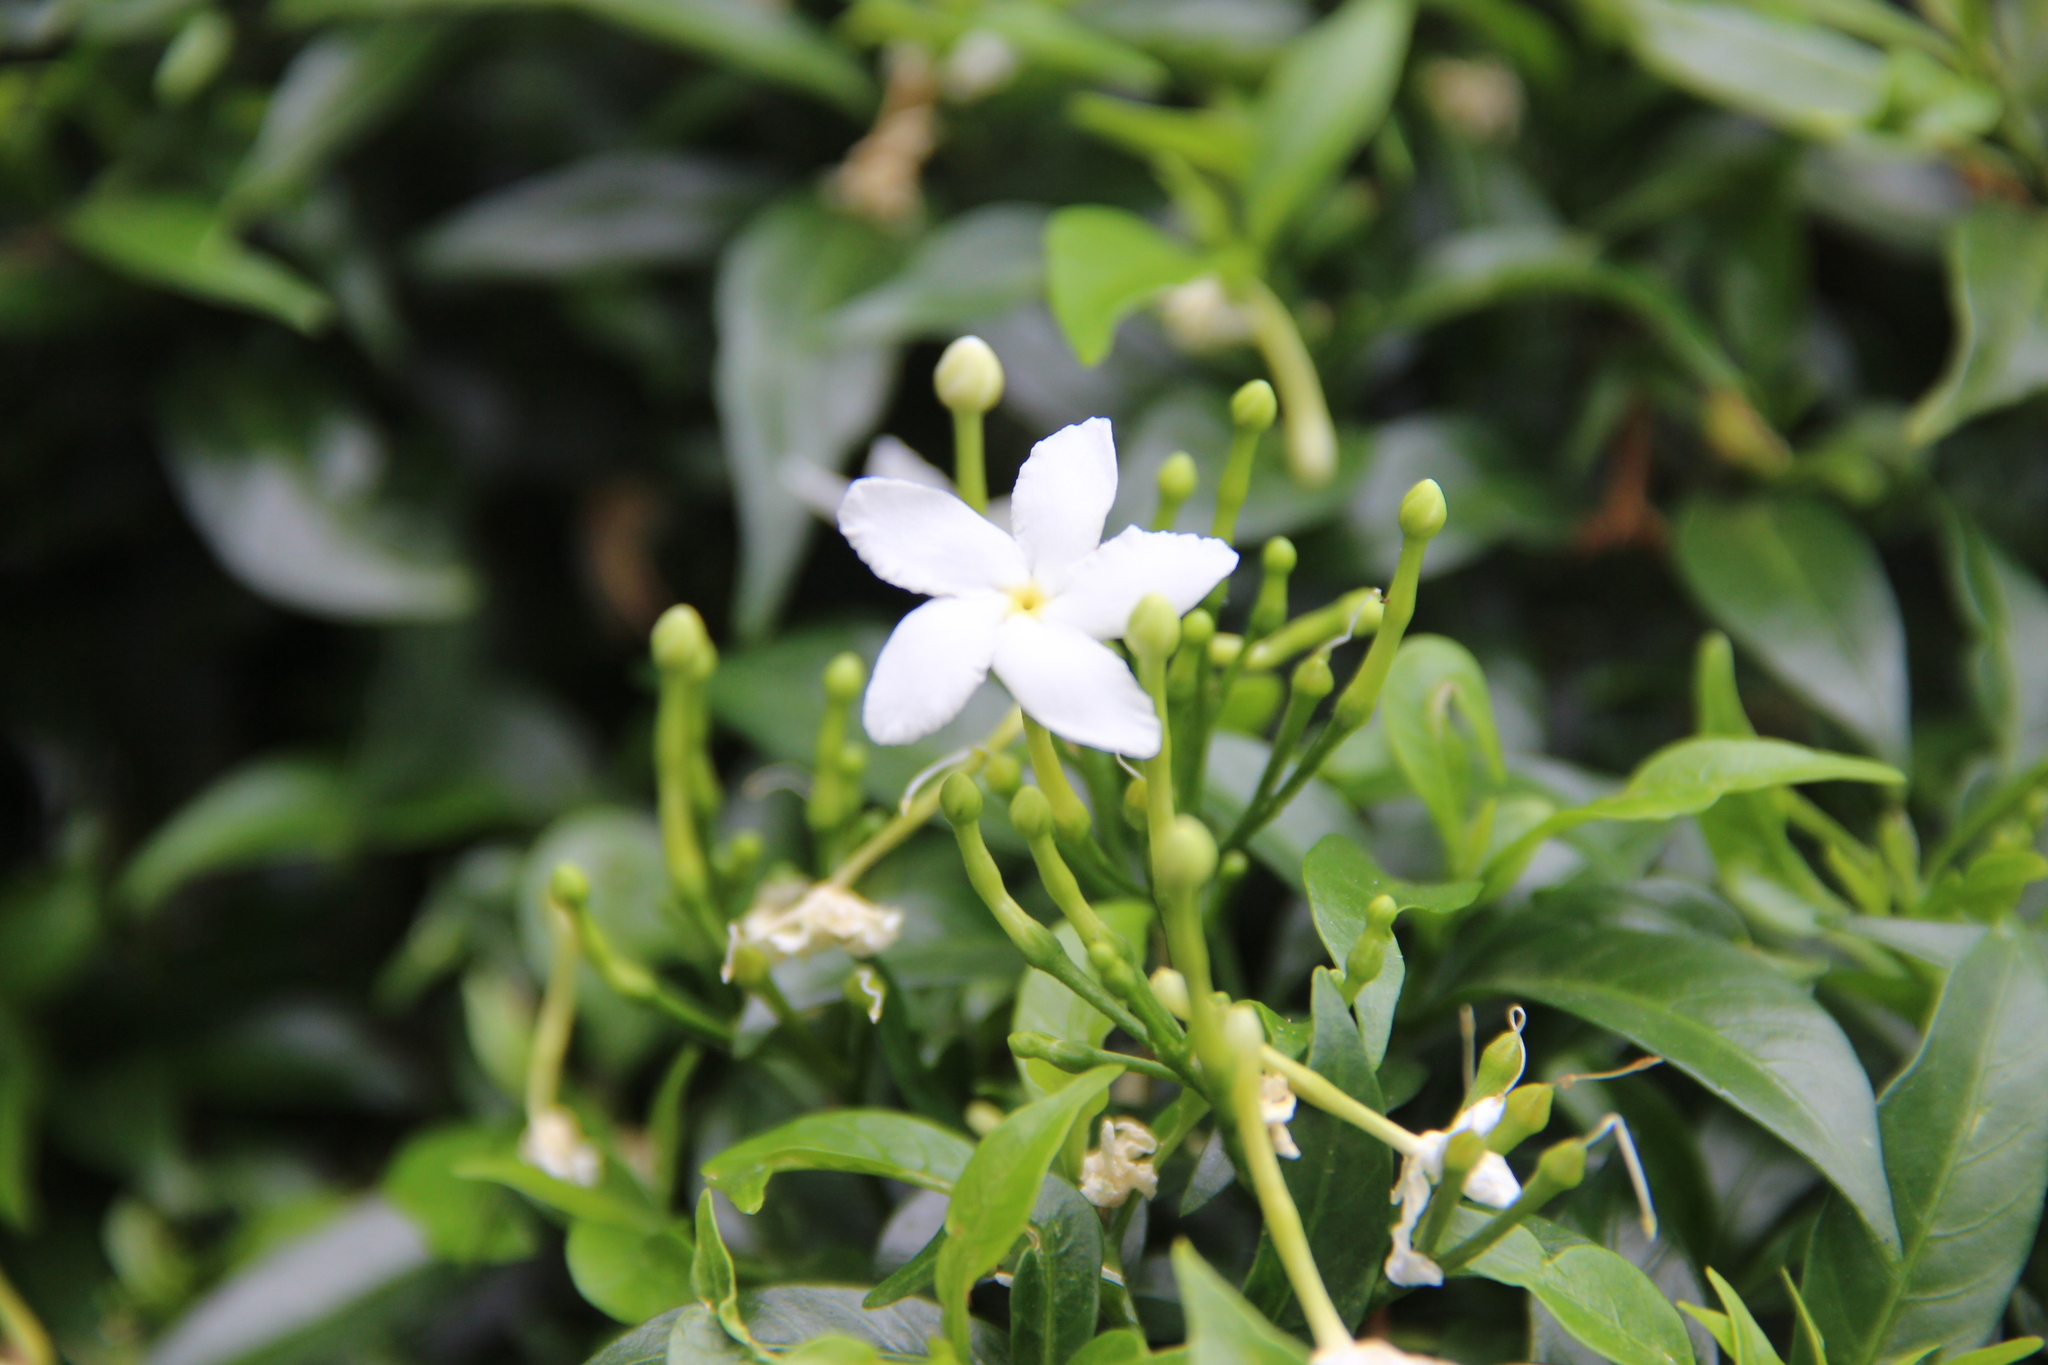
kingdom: Plantae
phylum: Tracheophyta
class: Magnoliopsida
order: Gentianales
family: Apocynaceae
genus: Tabernaemontana
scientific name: Tabernaemontana divaricata
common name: Pinwheelflower
